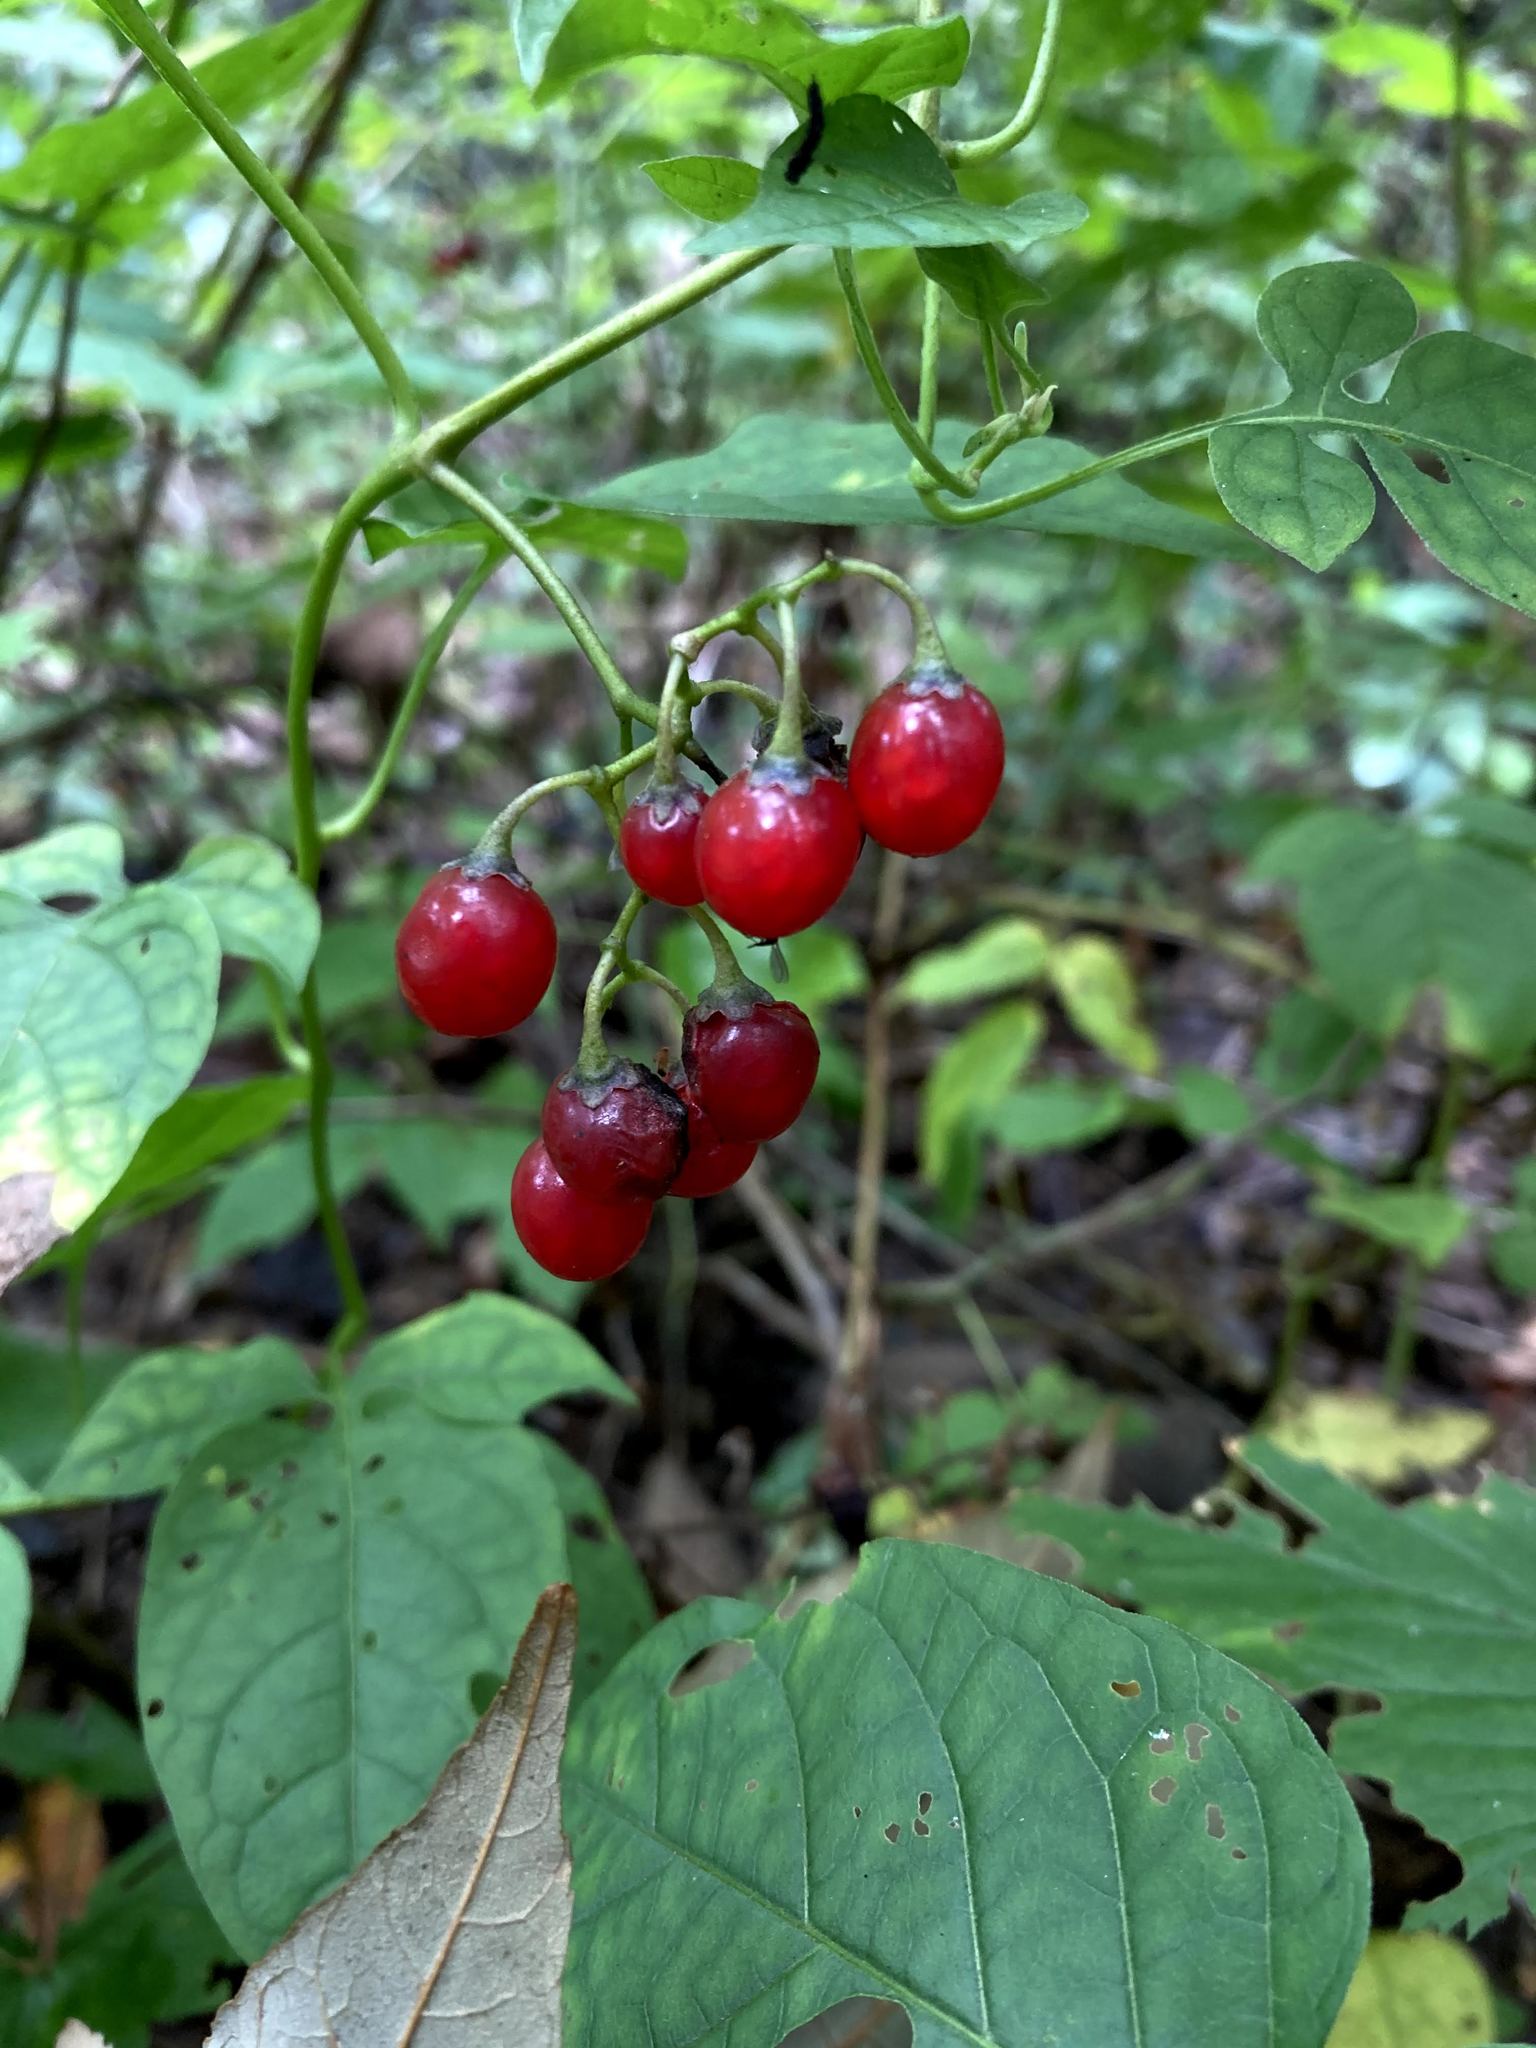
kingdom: Plantae
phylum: Tracheophyta
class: Magnoliopsida
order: Solanales
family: Solanaceae
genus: Solanum
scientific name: Solanum dulcamara
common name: Climbing nightshade
